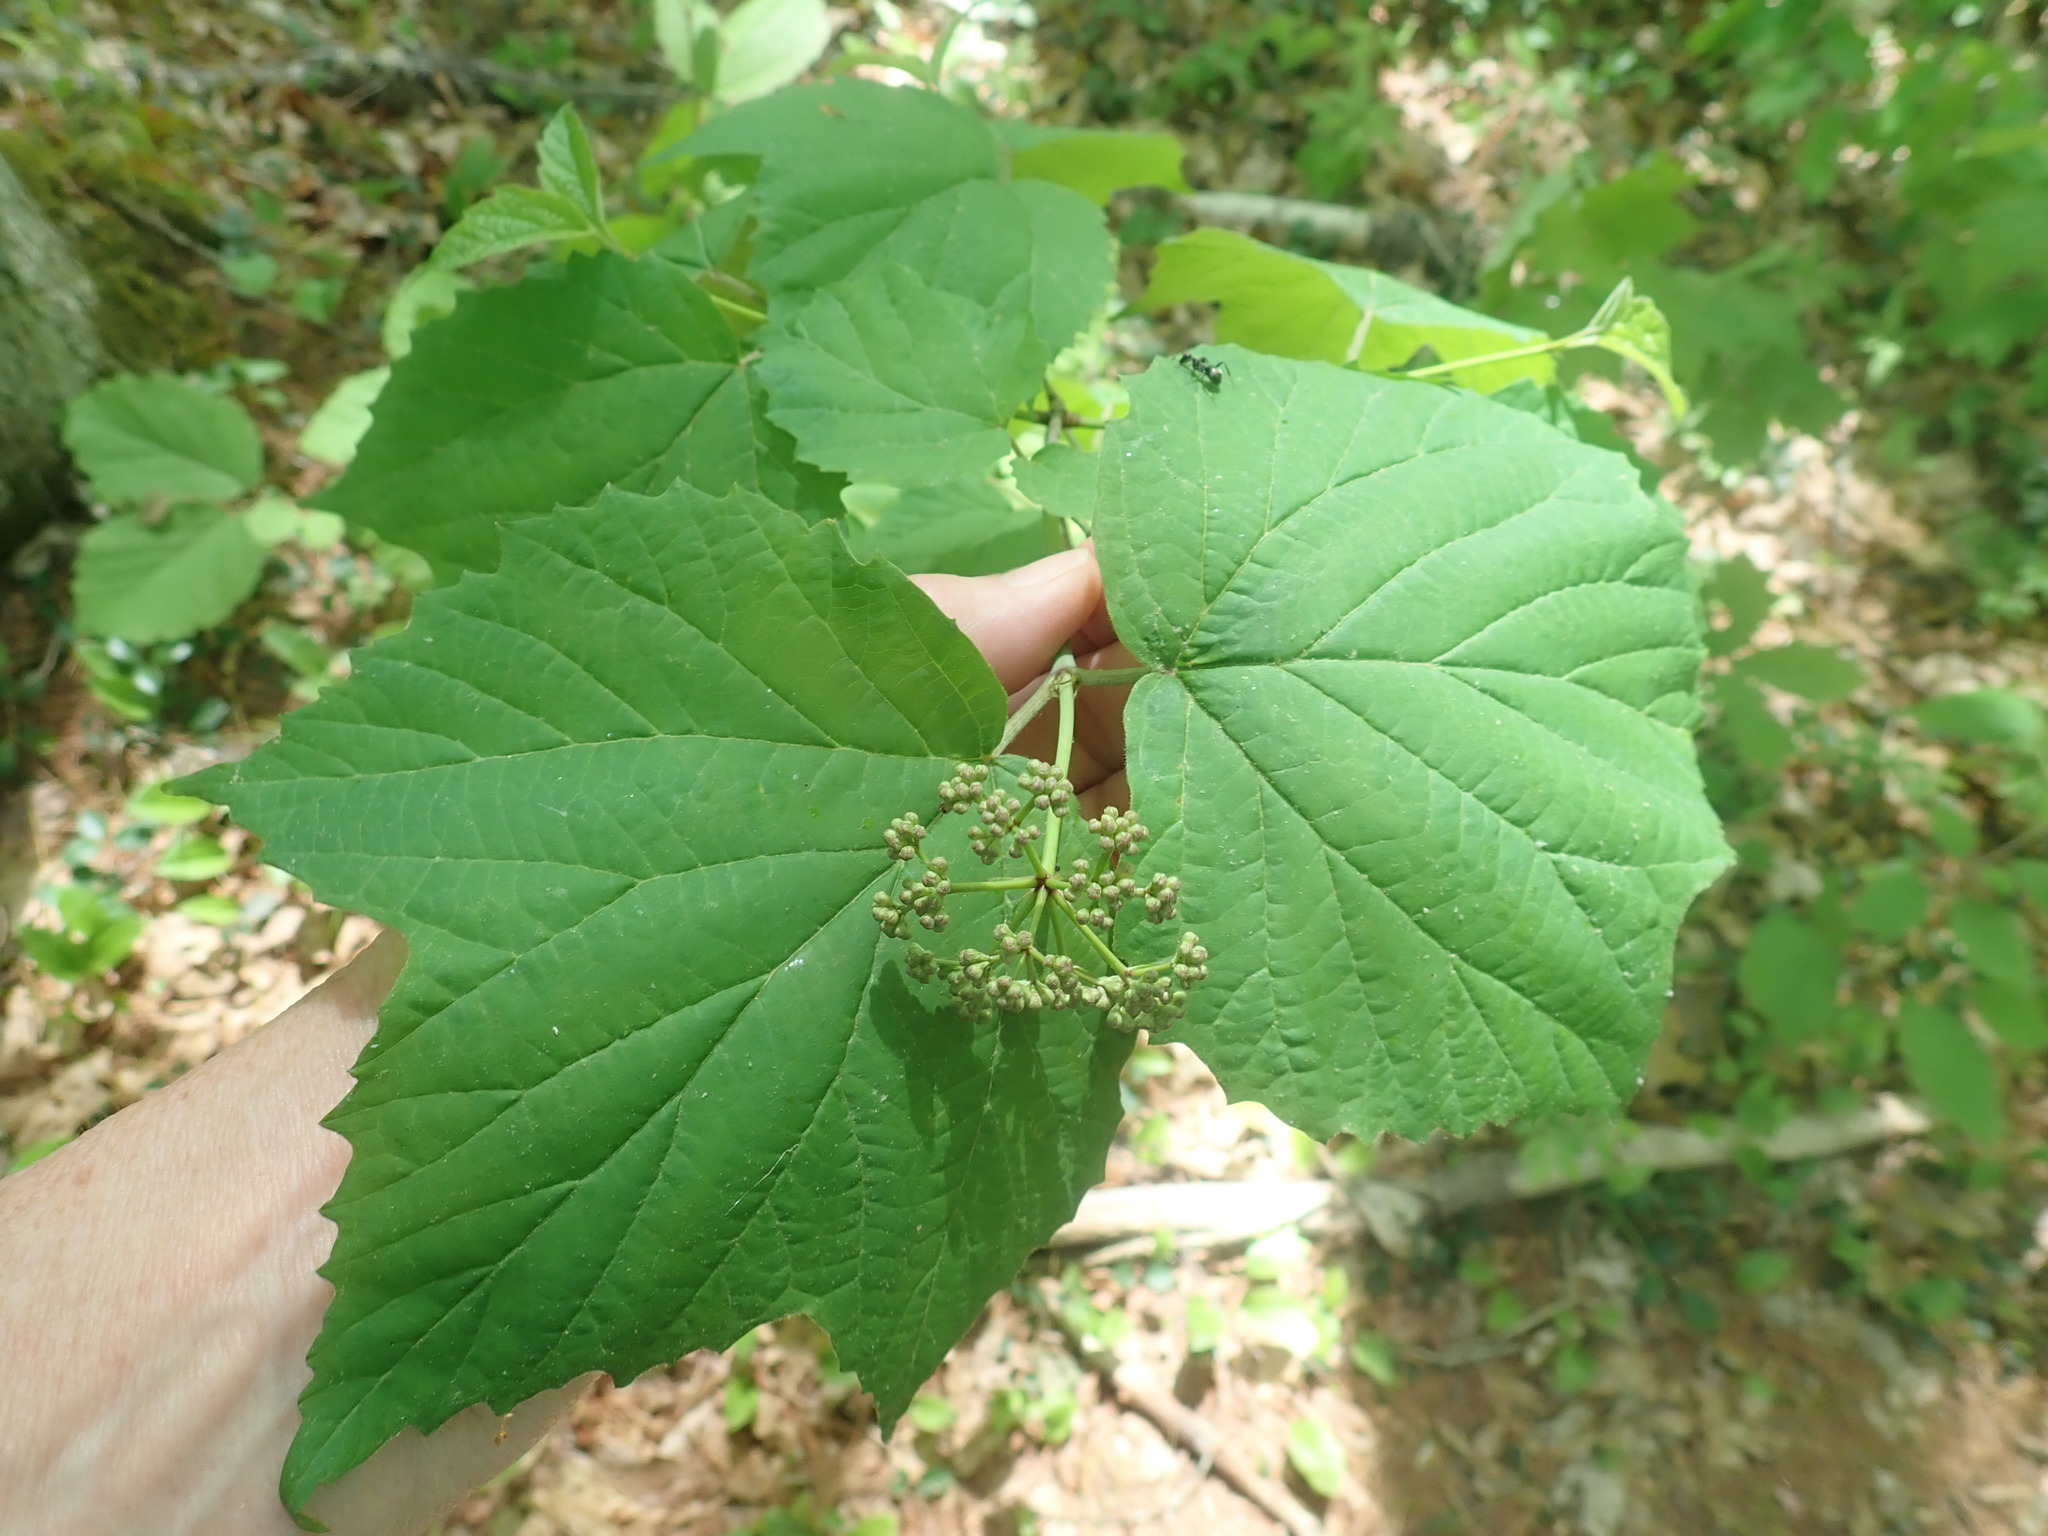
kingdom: Plantae
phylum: Tracheophyta
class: Magnoliopsida
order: Dipsacales
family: Viburnaceae
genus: Viburnum
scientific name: Viburnum acerifolium
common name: Dockmackie
